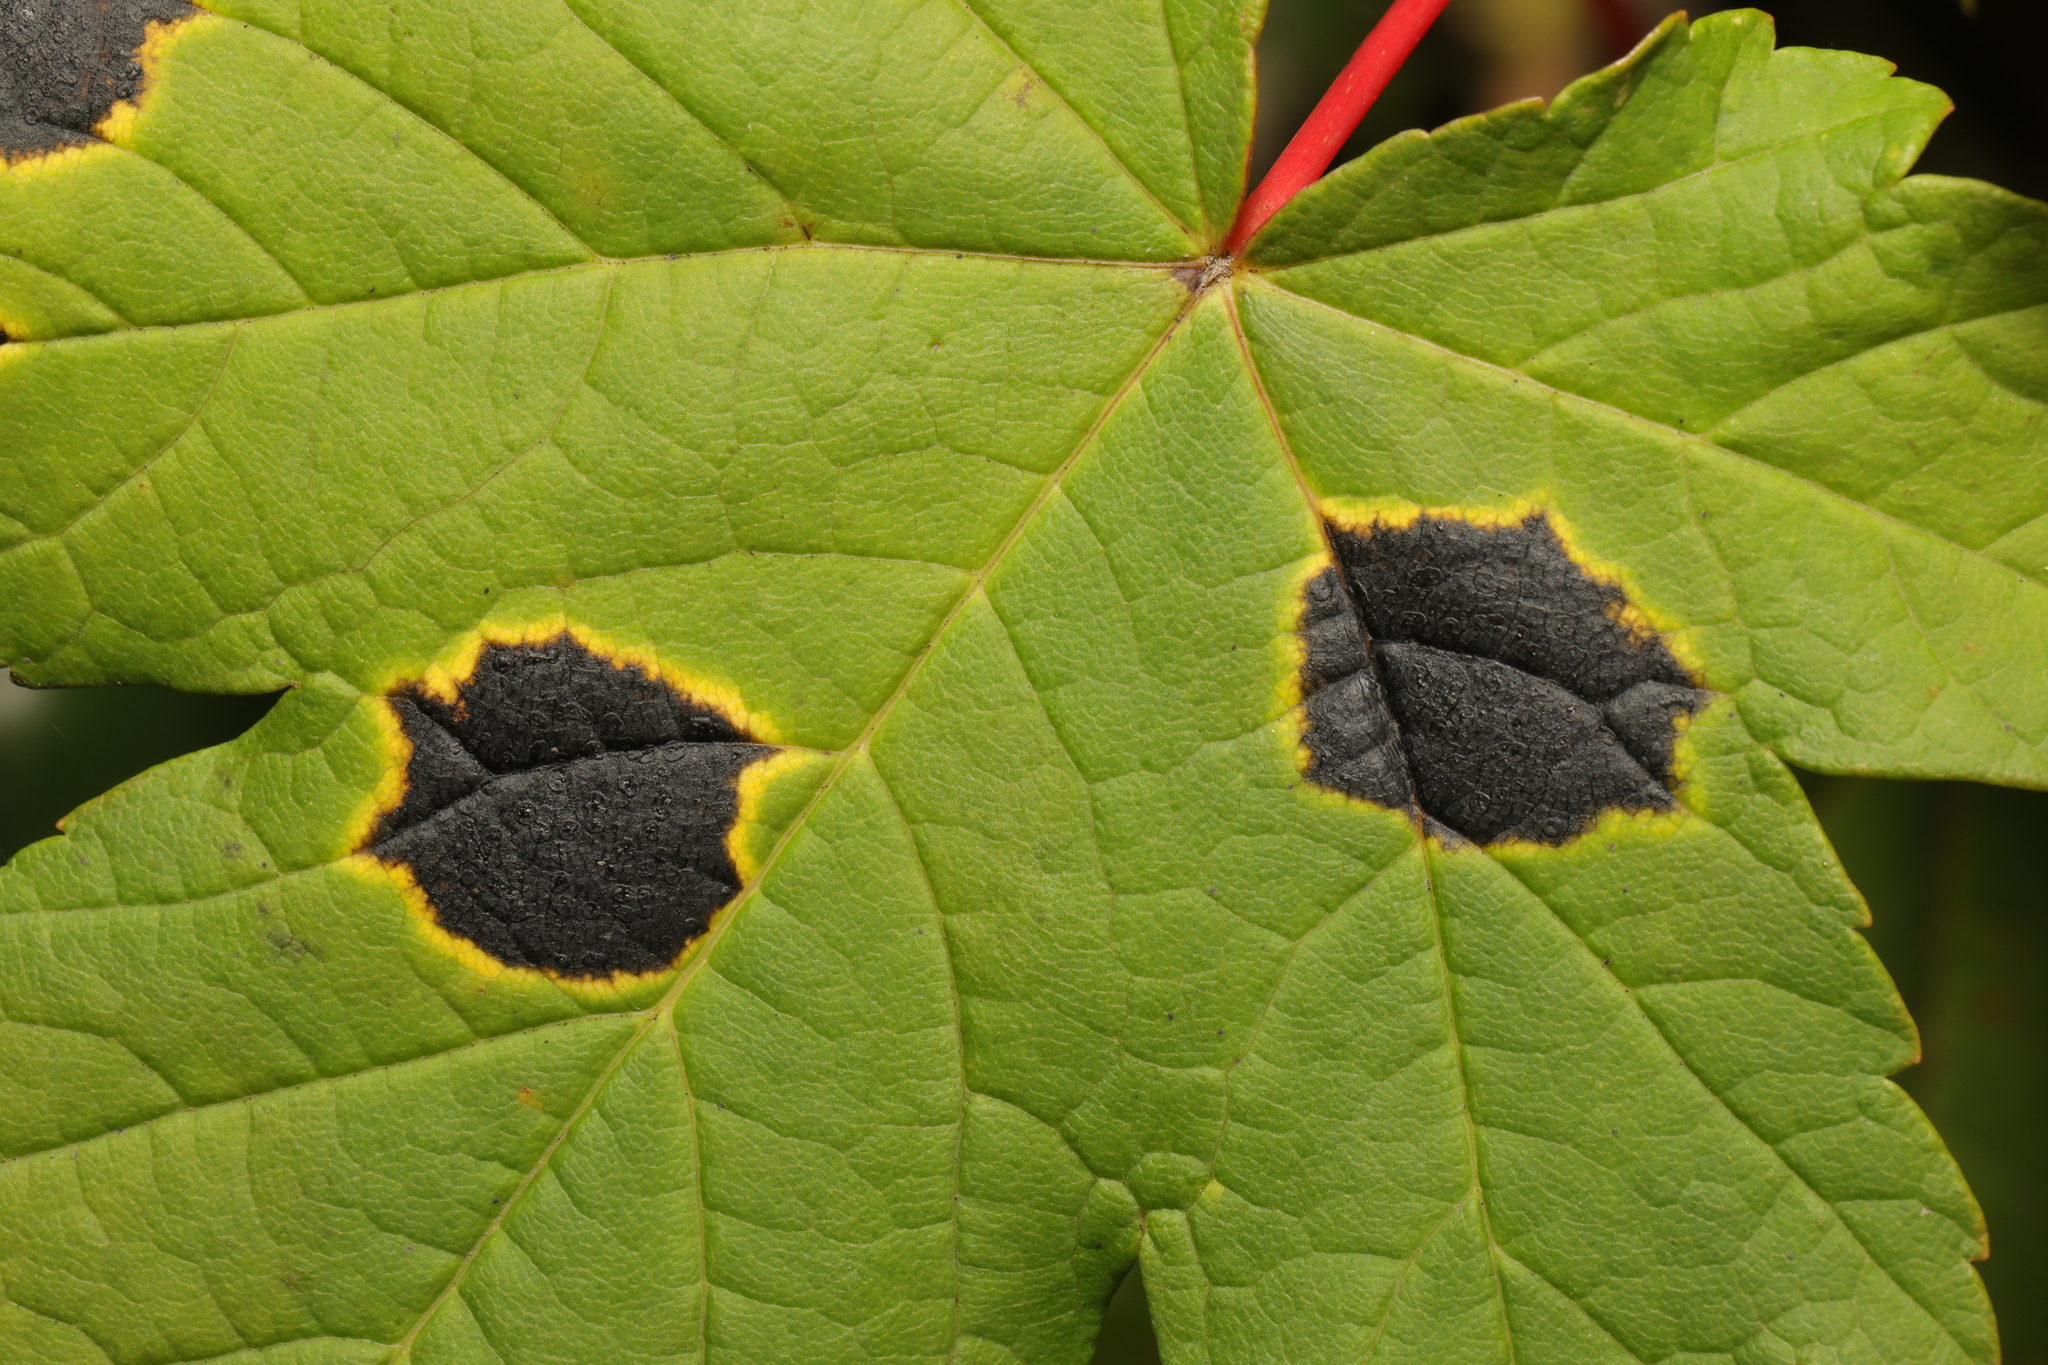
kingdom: Fungi
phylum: Ascomycota
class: Leotiomycetes
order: Rhytismatales
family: Rhytismataceae
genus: Rhytisma
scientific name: Rhytisma acerinum
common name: European tar spot
